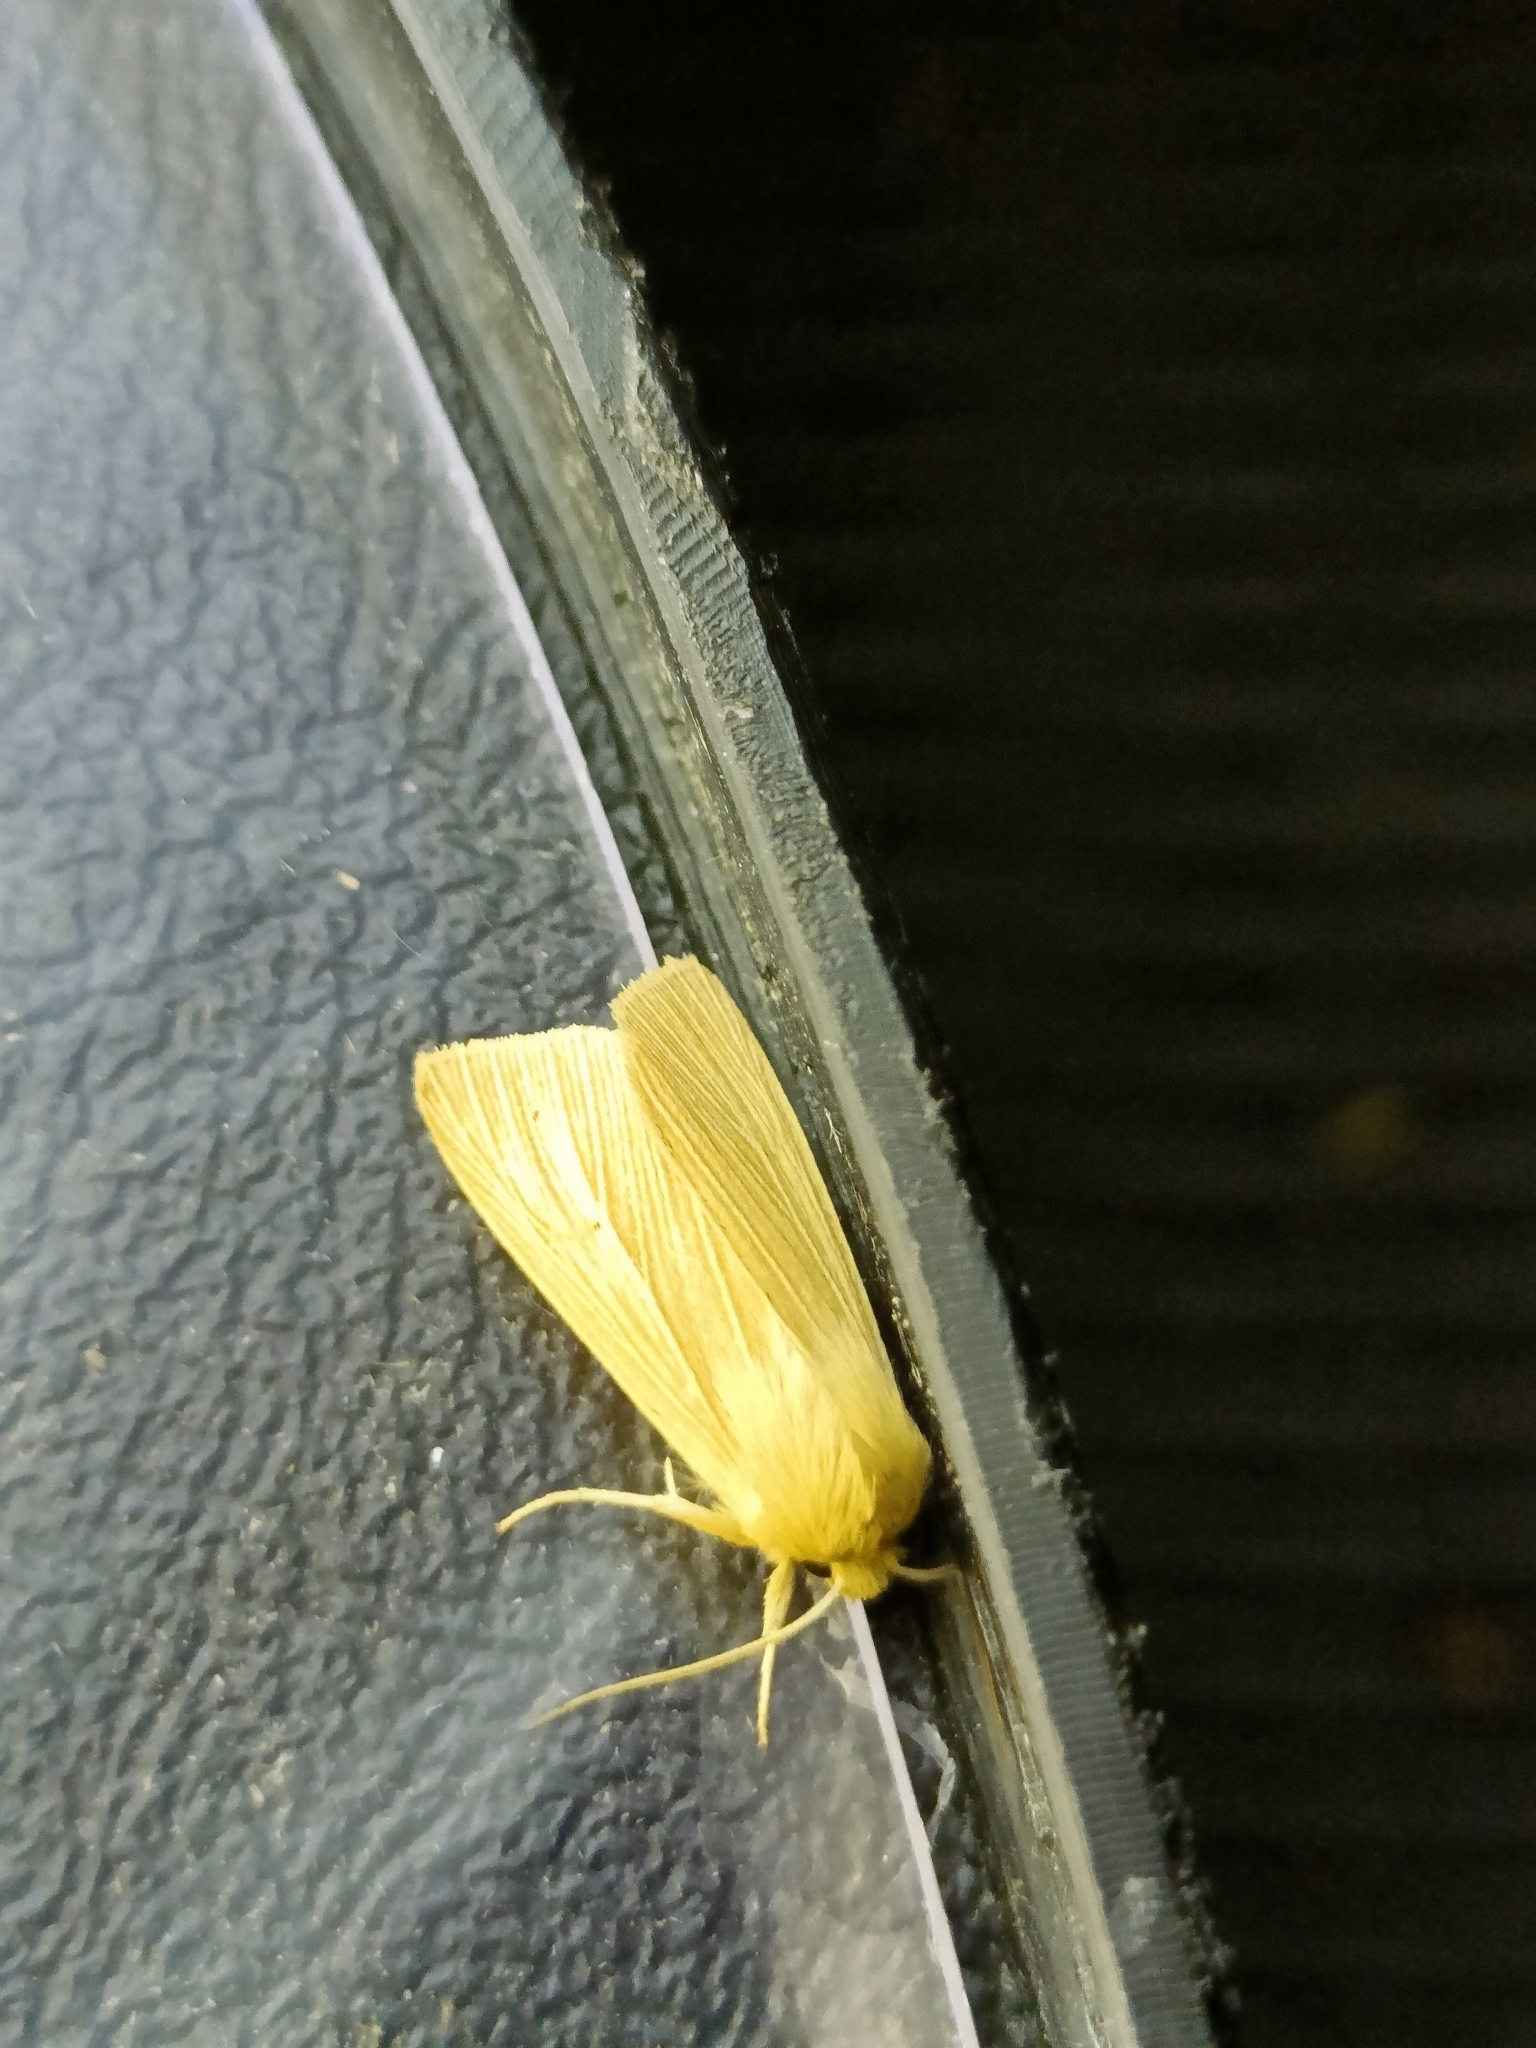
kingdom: Animalia
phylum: Arthropoda
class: Insecta
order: Lepidoptera
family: Noctuidae
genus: Mythimna
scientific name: Mythimna pallens
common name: Common wainscot
